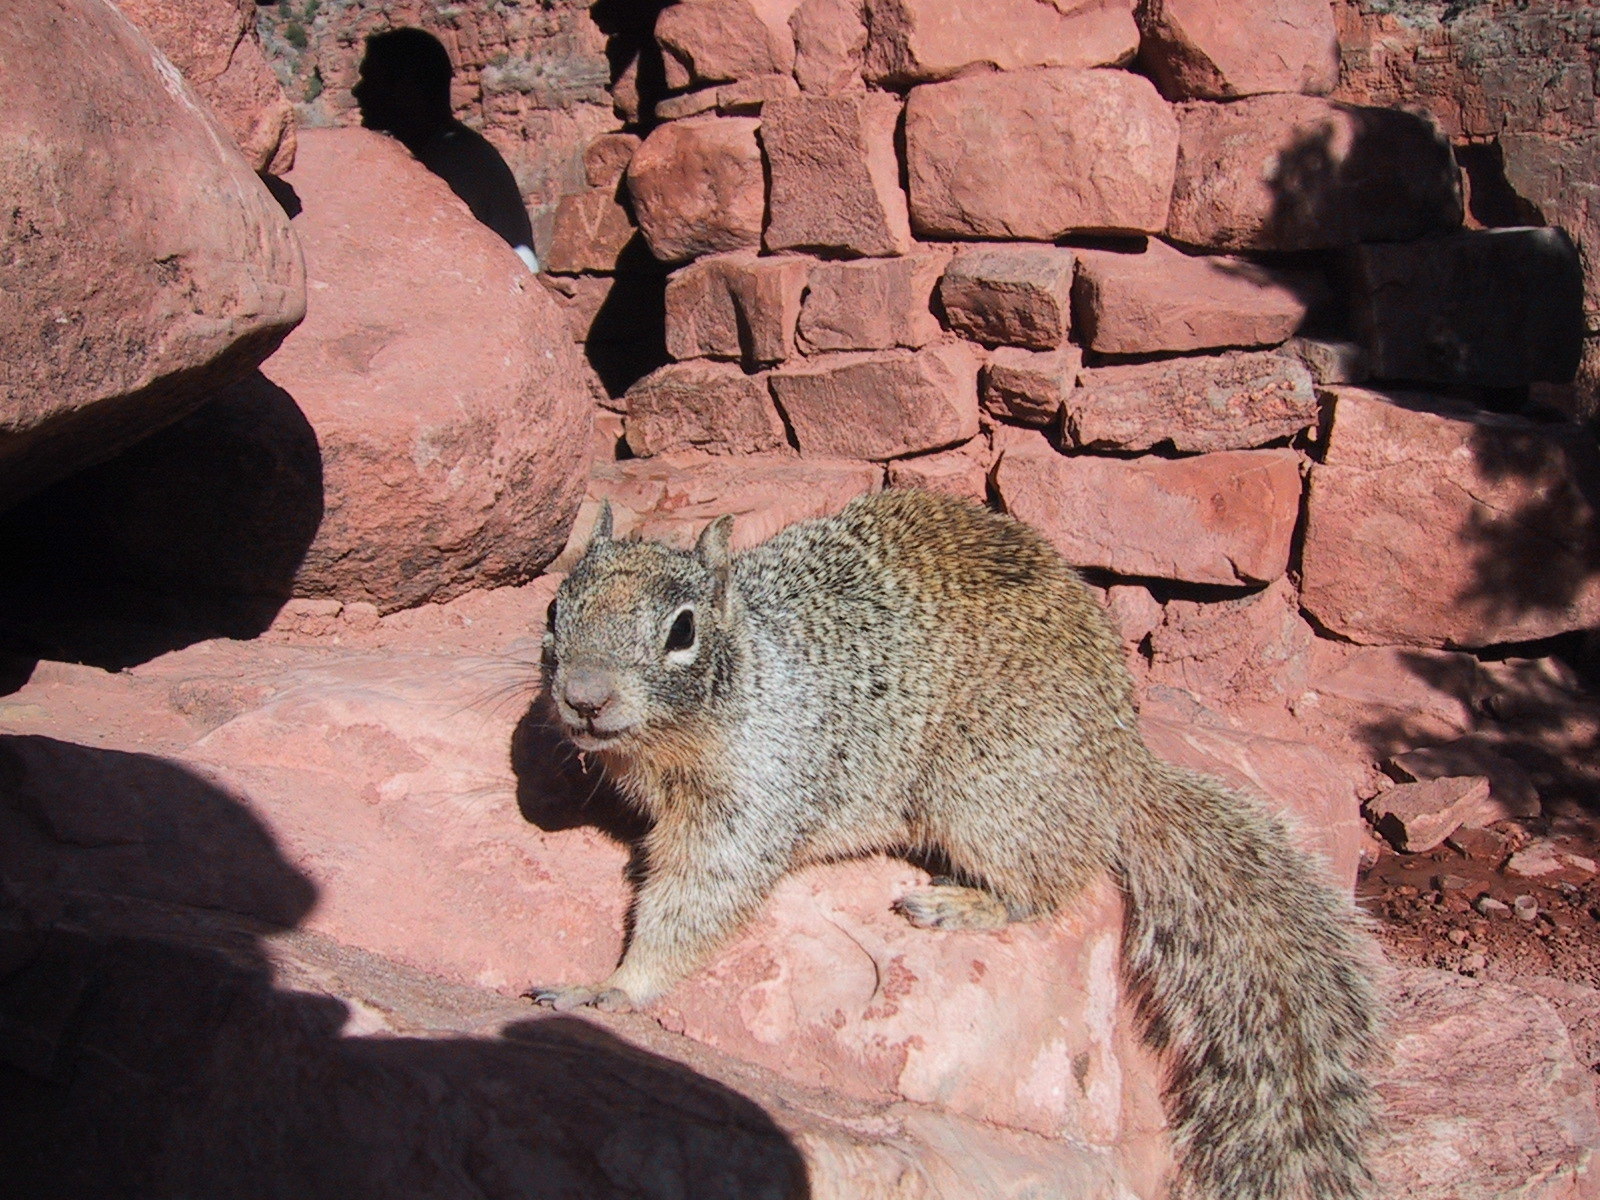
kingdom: Animalia
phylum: Chordata
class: Mammalia
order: Rodentia
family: Sciuridae
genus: Otospermophilus
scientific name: Otospermophilus variegatus
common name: Rock squirrel
